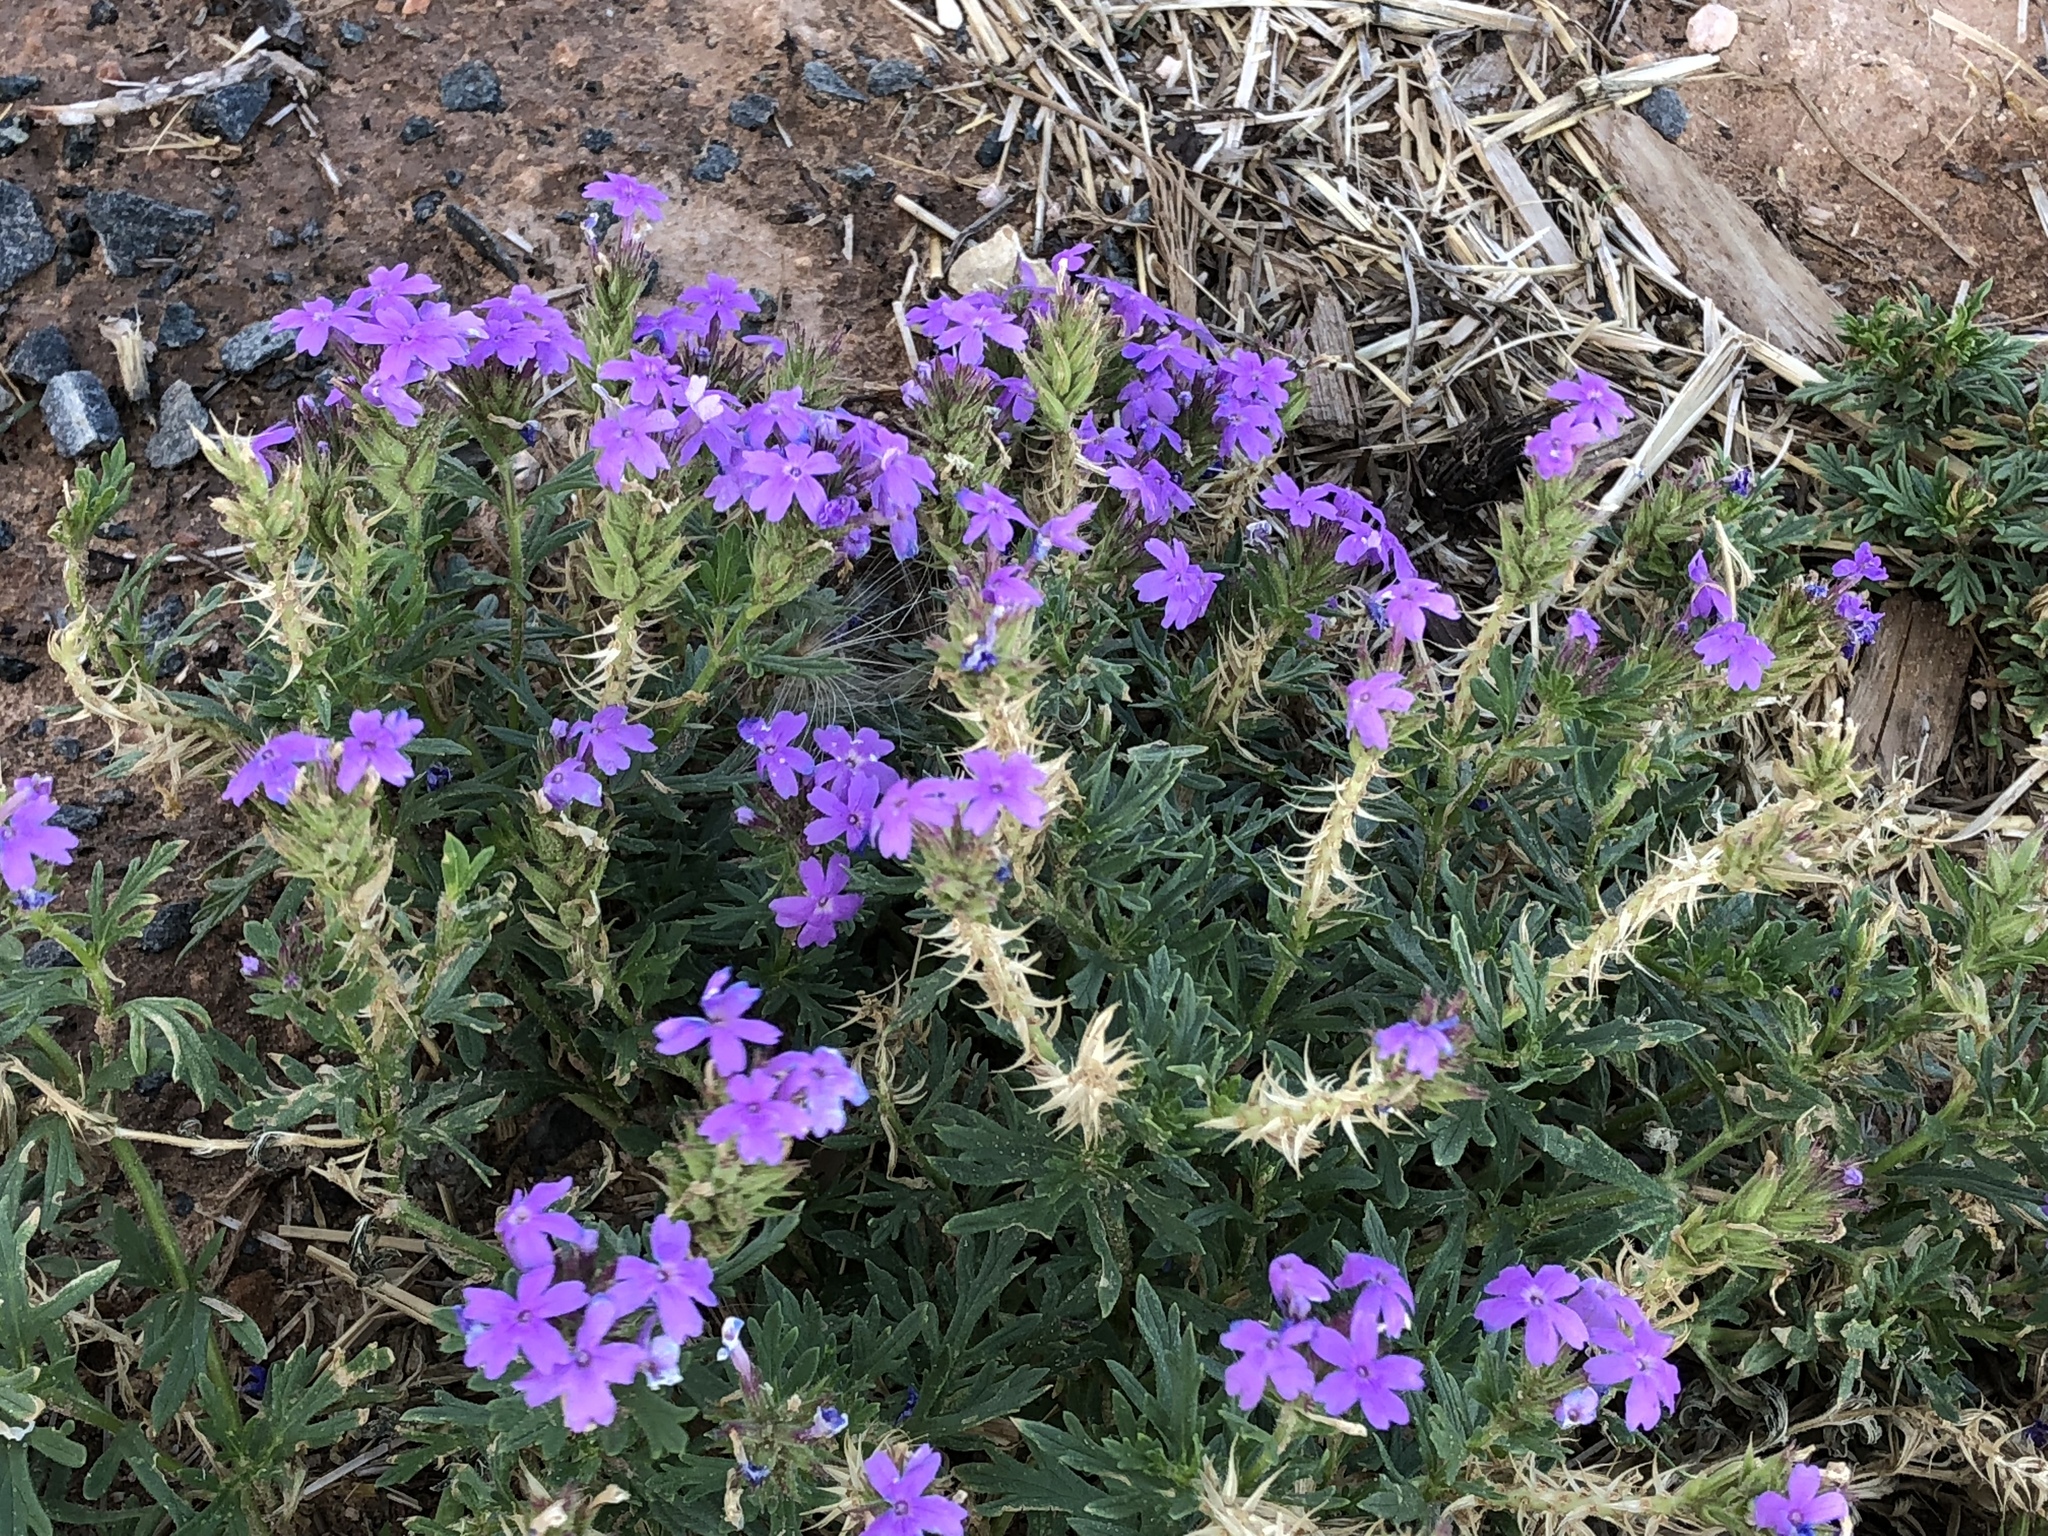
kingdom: Plantae
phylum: Tracheophyta
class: Magnoliopsida
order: Lamiales
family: Verbenaceae
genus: Verbena
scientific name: Verbena bipinnatifida
